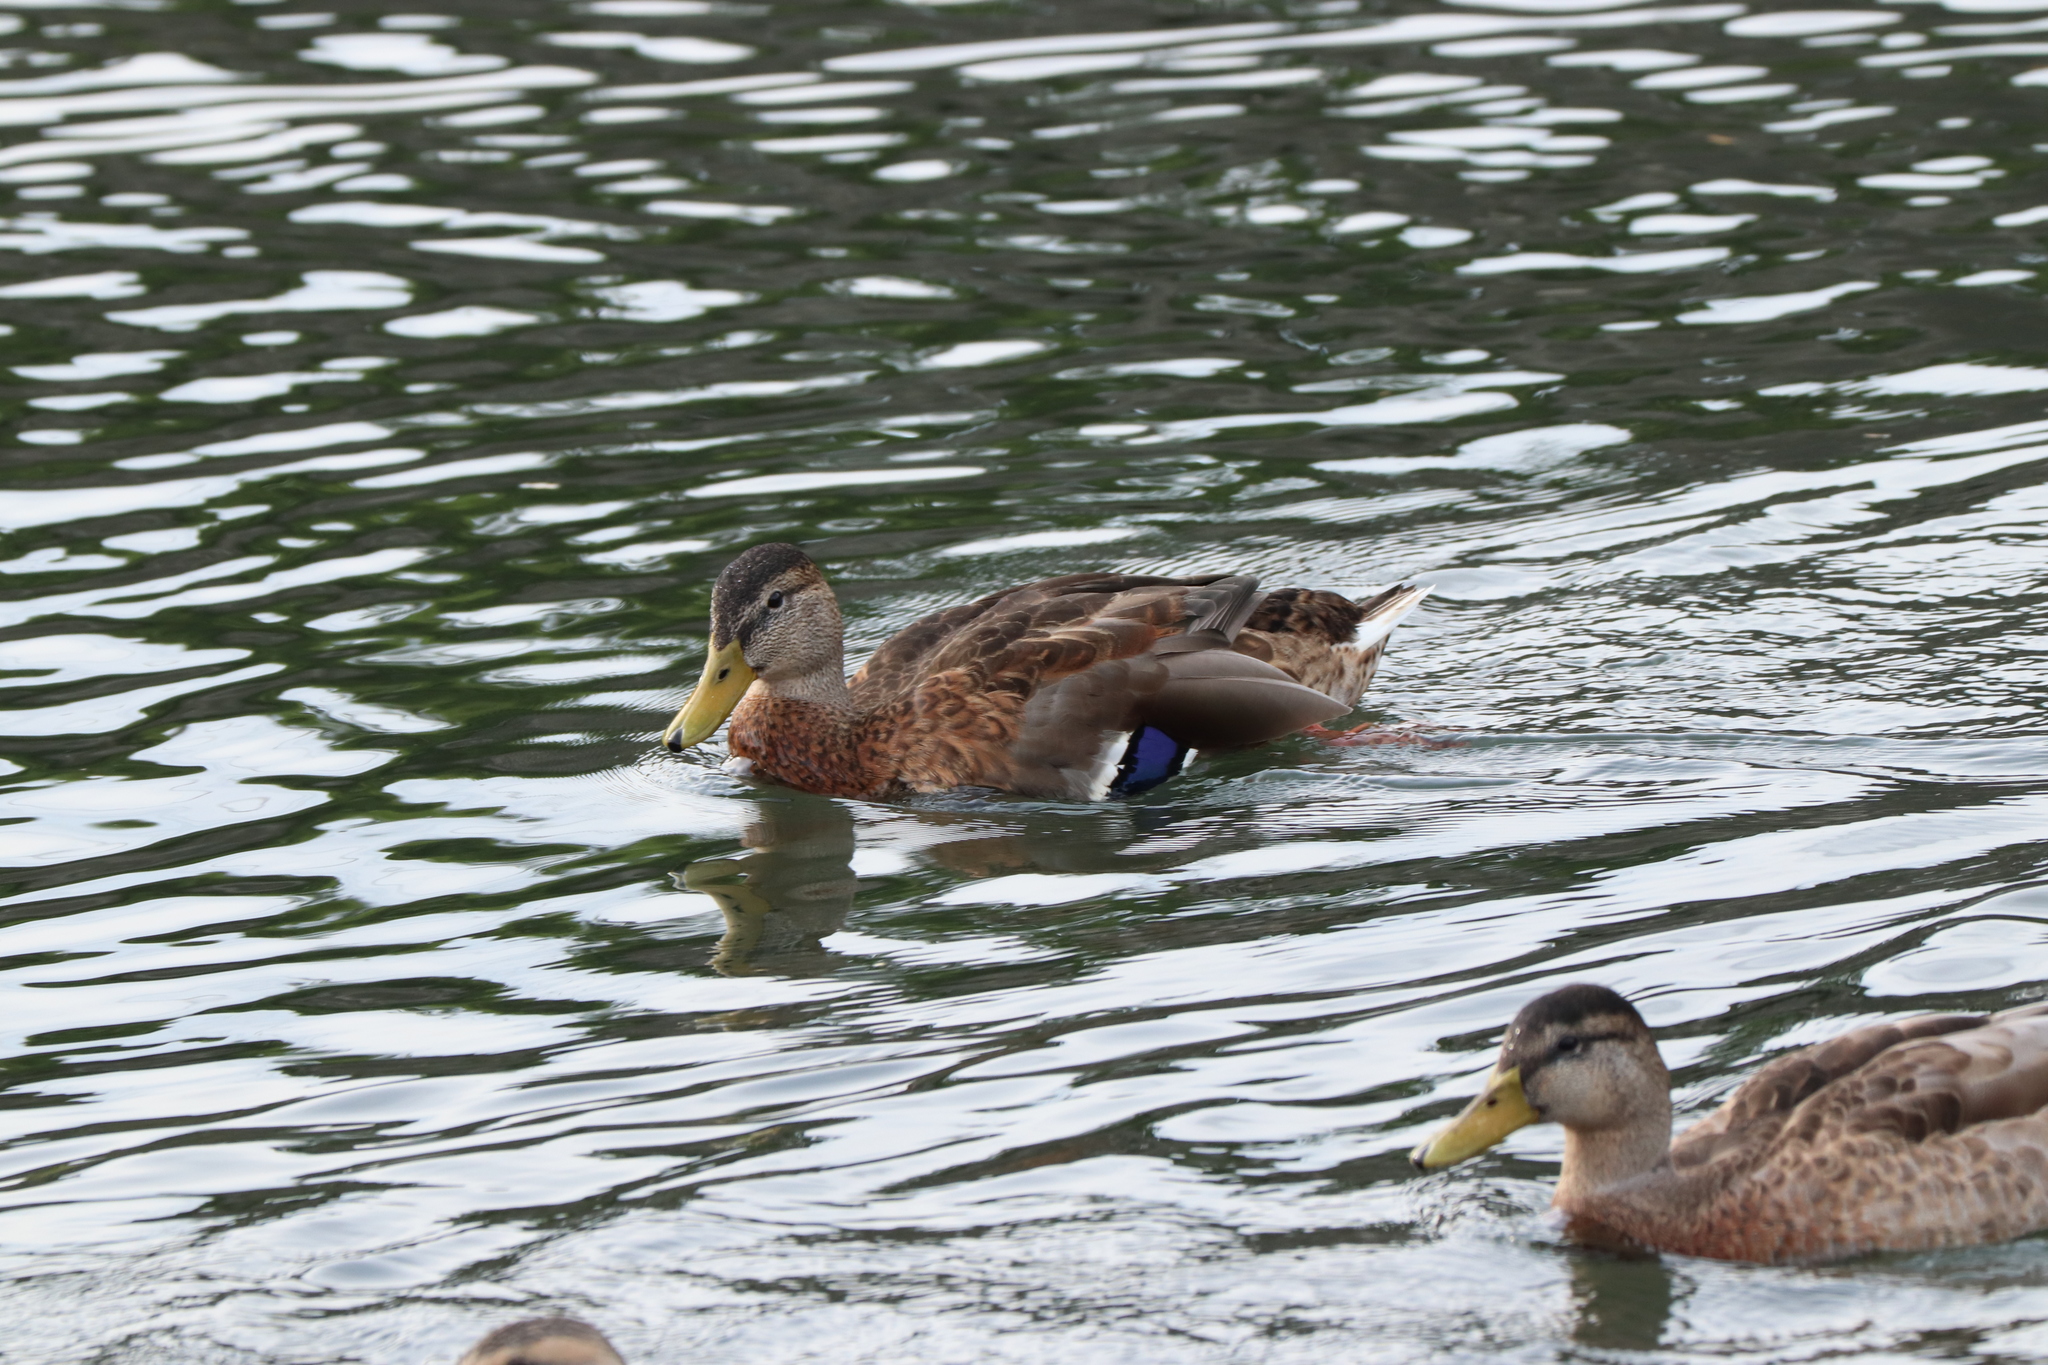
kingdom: Animalia
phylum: Chordata
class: Aves
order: Anseriformes
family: Anatidae
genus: Anas
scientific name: Anas platyrhynchos
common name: Mallard
